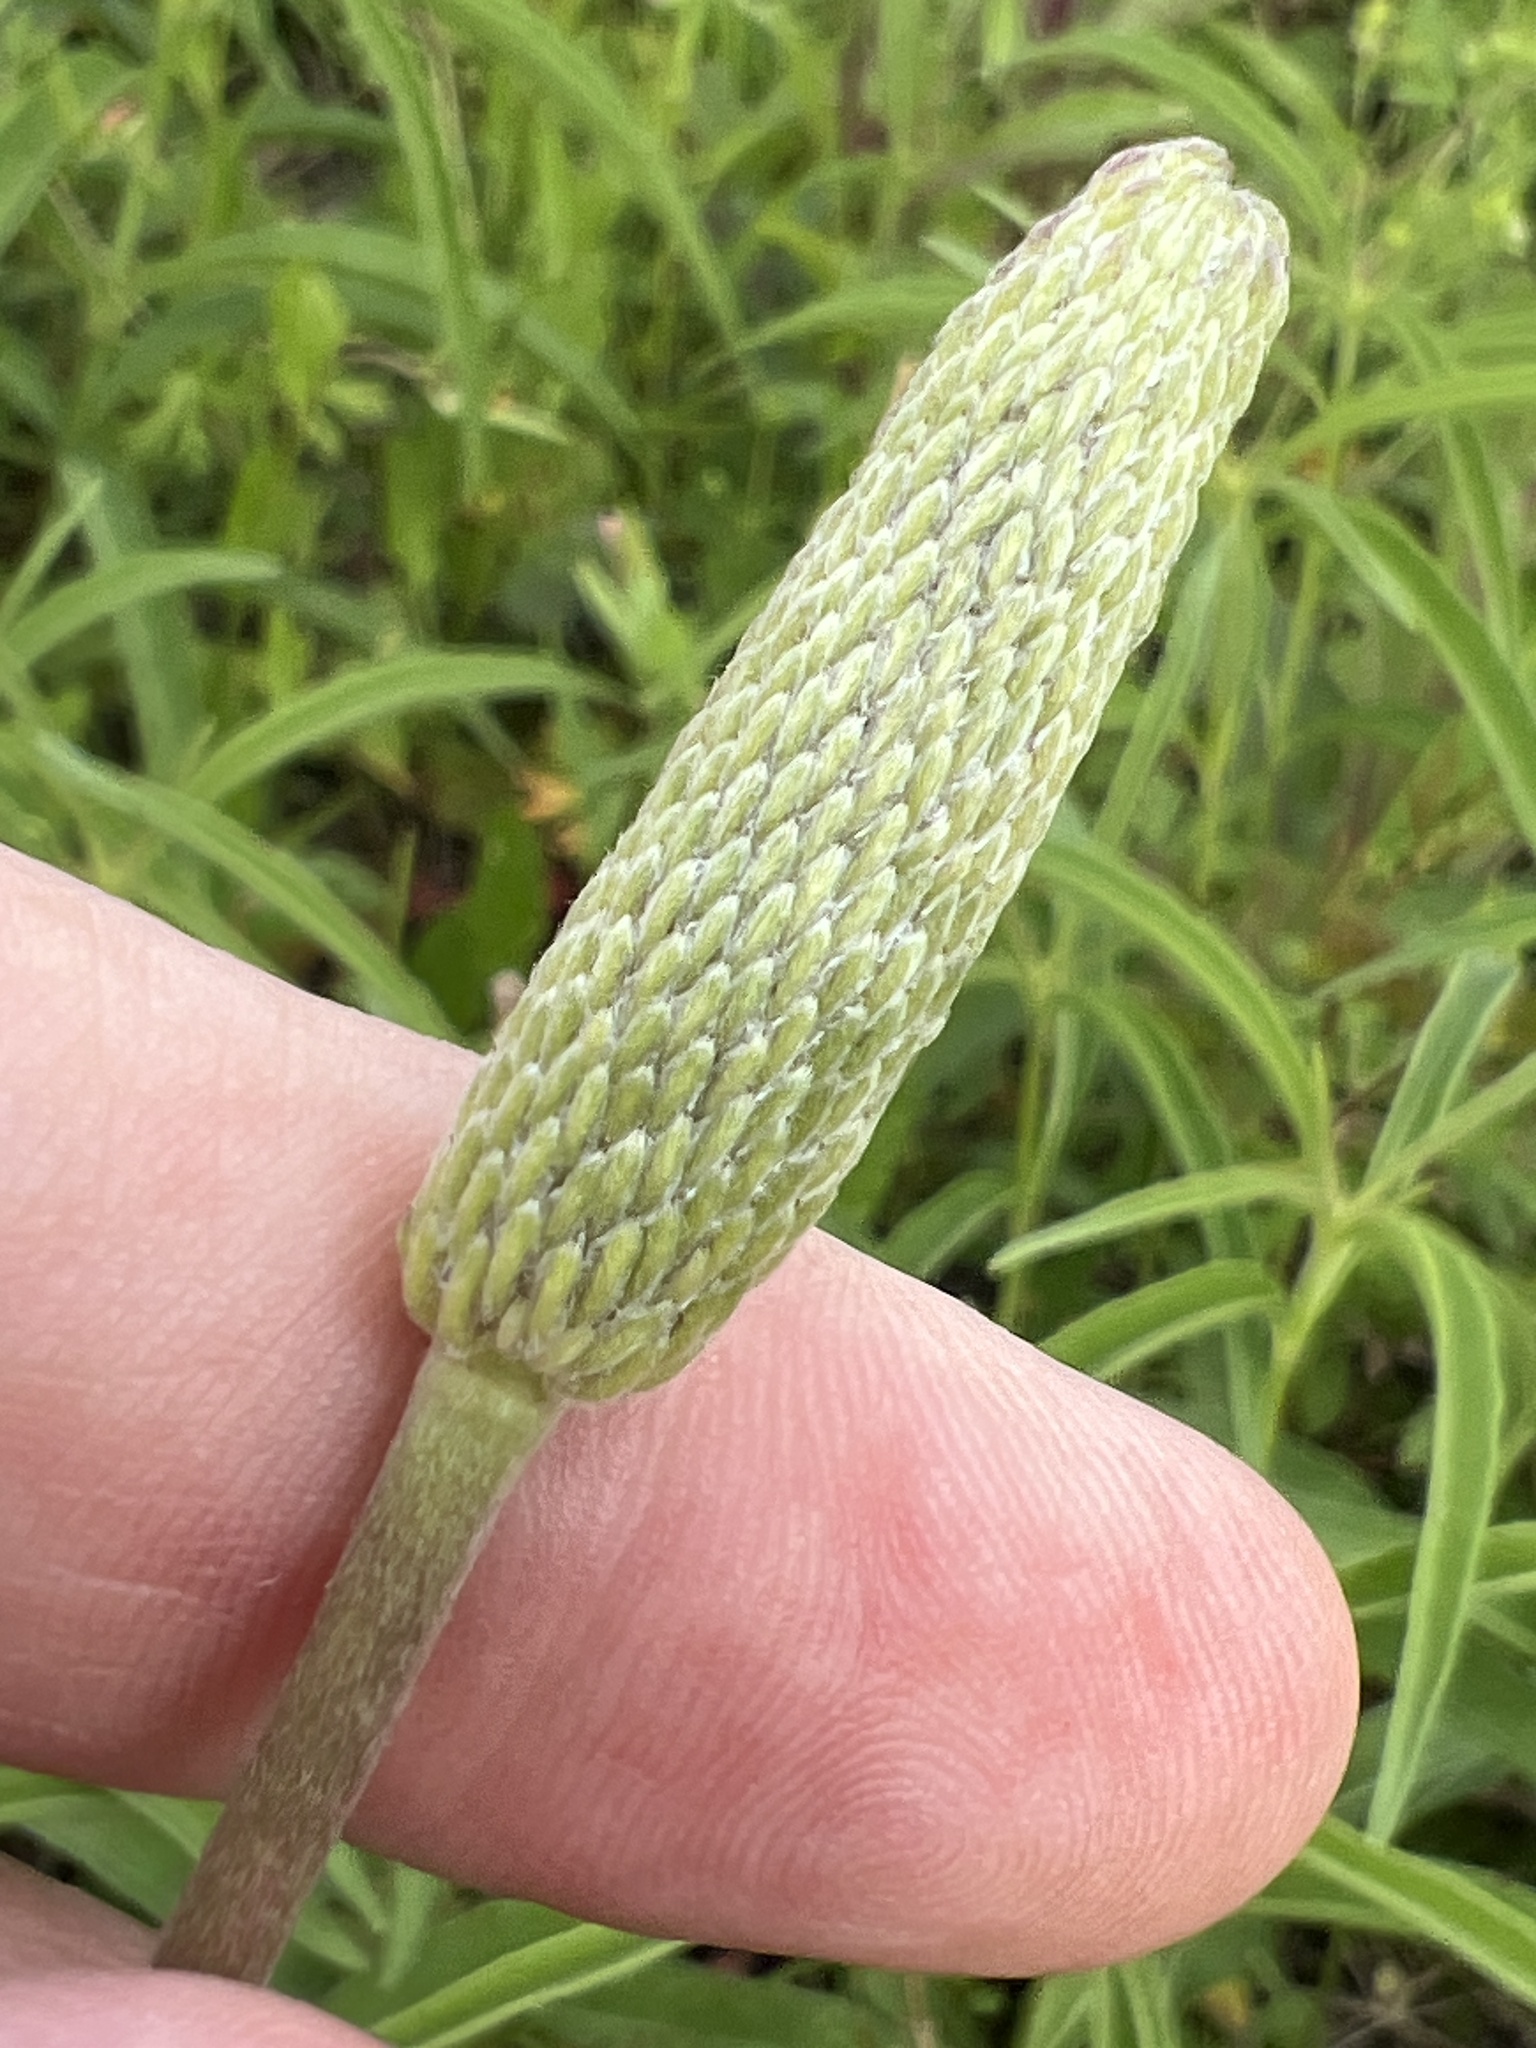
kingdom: Plantae
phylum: Tracheophyta
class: Magnoliopsida
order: Ranunculales
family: Ranunculaceae
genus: Anemone
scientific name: Anemone berlandieri
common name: Ten-petal anemone
